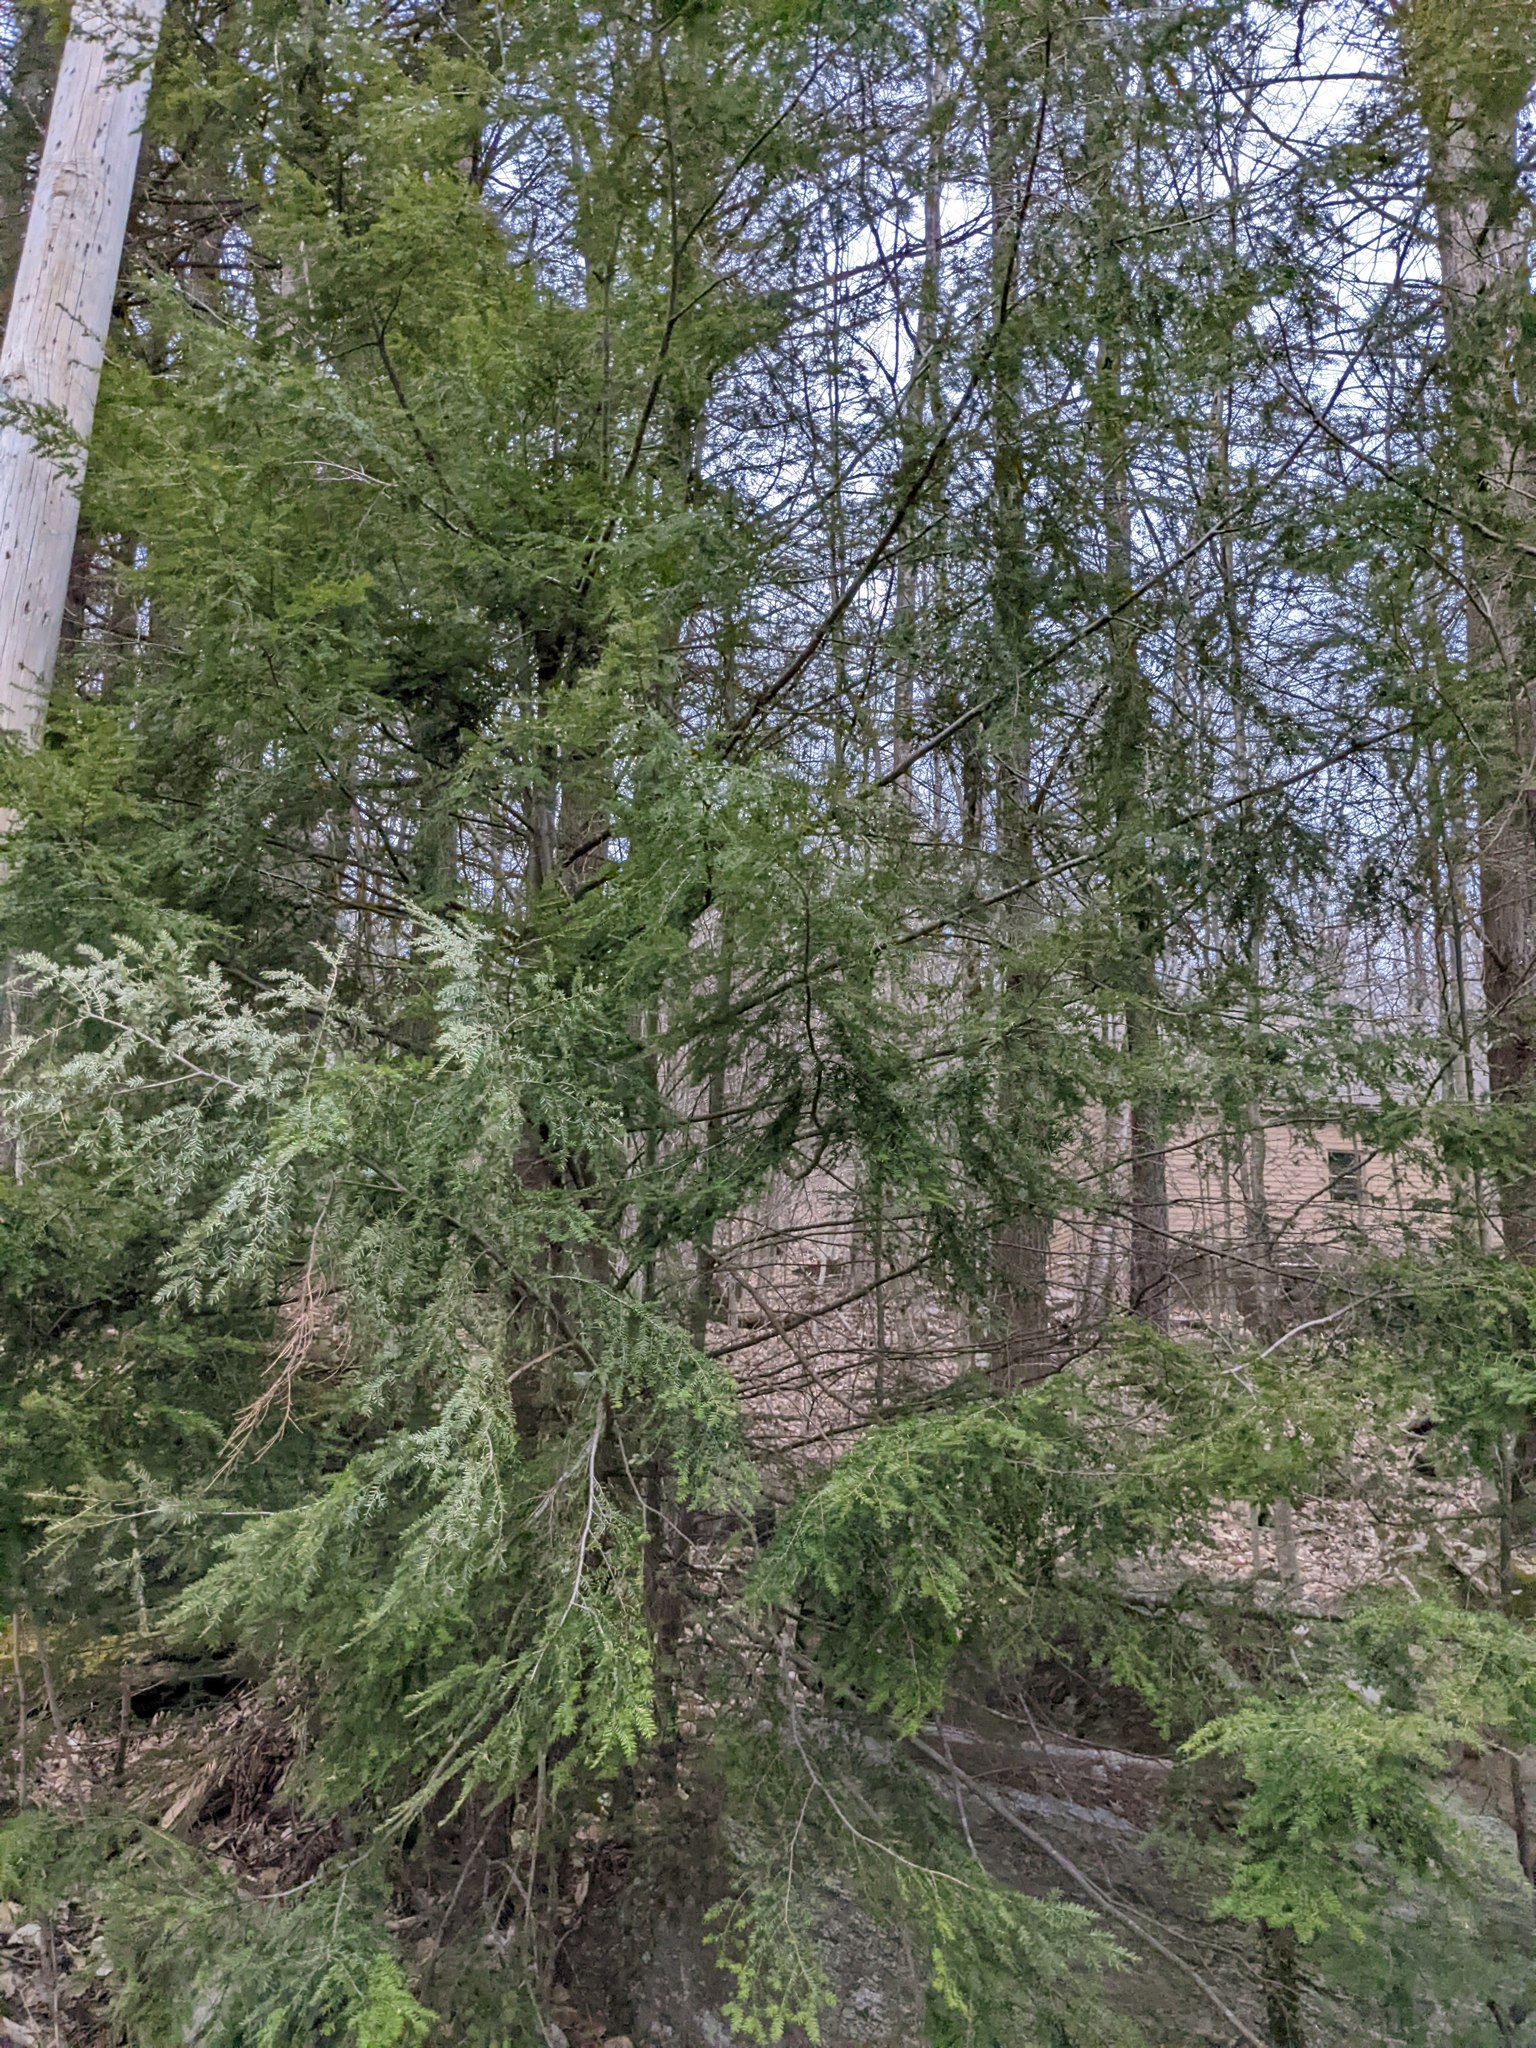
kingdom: Plantae
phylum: Tracheophyta
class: Pinopsida
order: Pinales
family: Pinaceae
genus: Tsuga
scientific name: Tsuga canadensis
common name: Eastern hemlock
